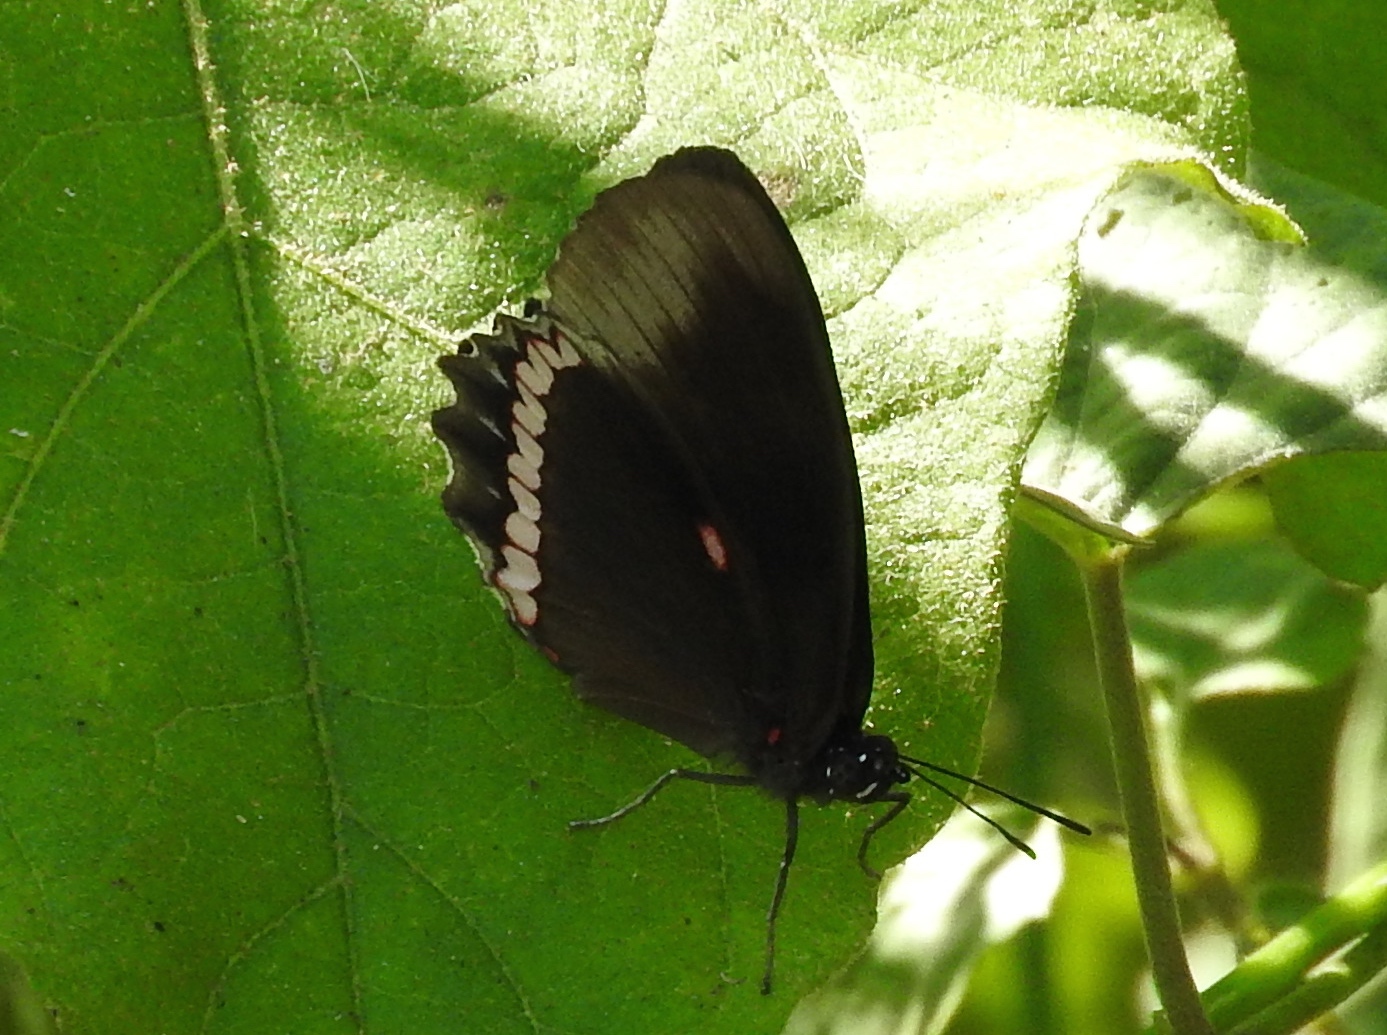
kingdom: Animalia
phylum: Arthropoda
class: Insecta
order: Lepidoptera
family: Nymphalidae
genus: Biblis
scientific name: Biblis aganisa
